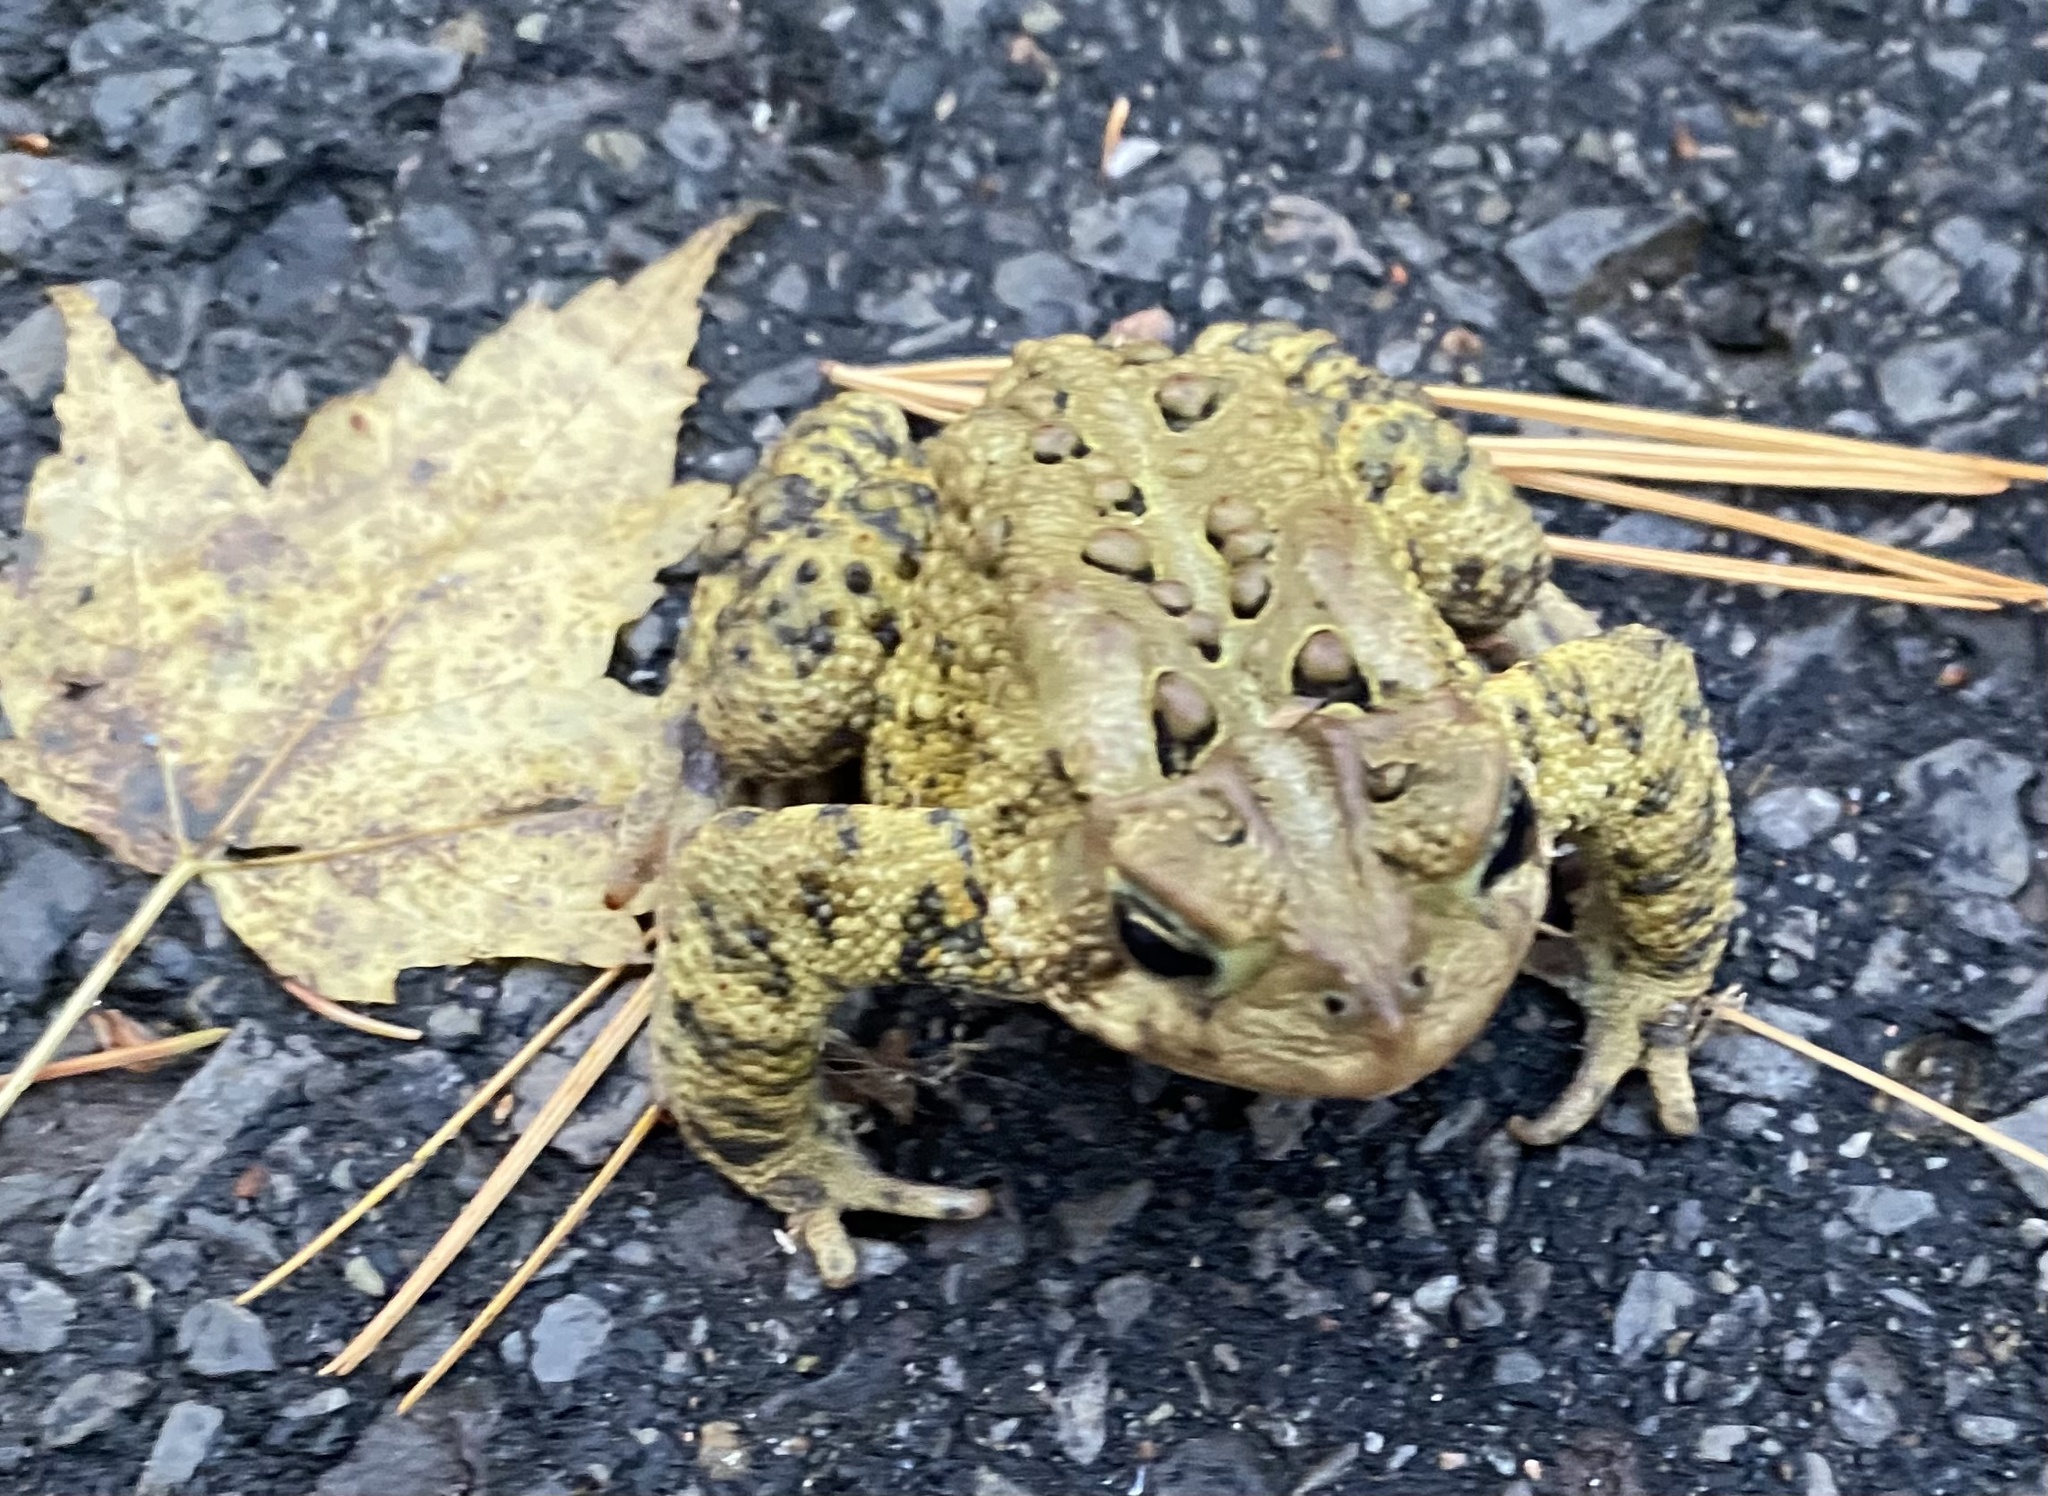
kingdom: Animalia
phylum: Chordata
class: Amphibia
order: Anura
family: Bufonidae
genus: Anaxyrus
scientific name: Anaxyrus americanus
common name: American toad
